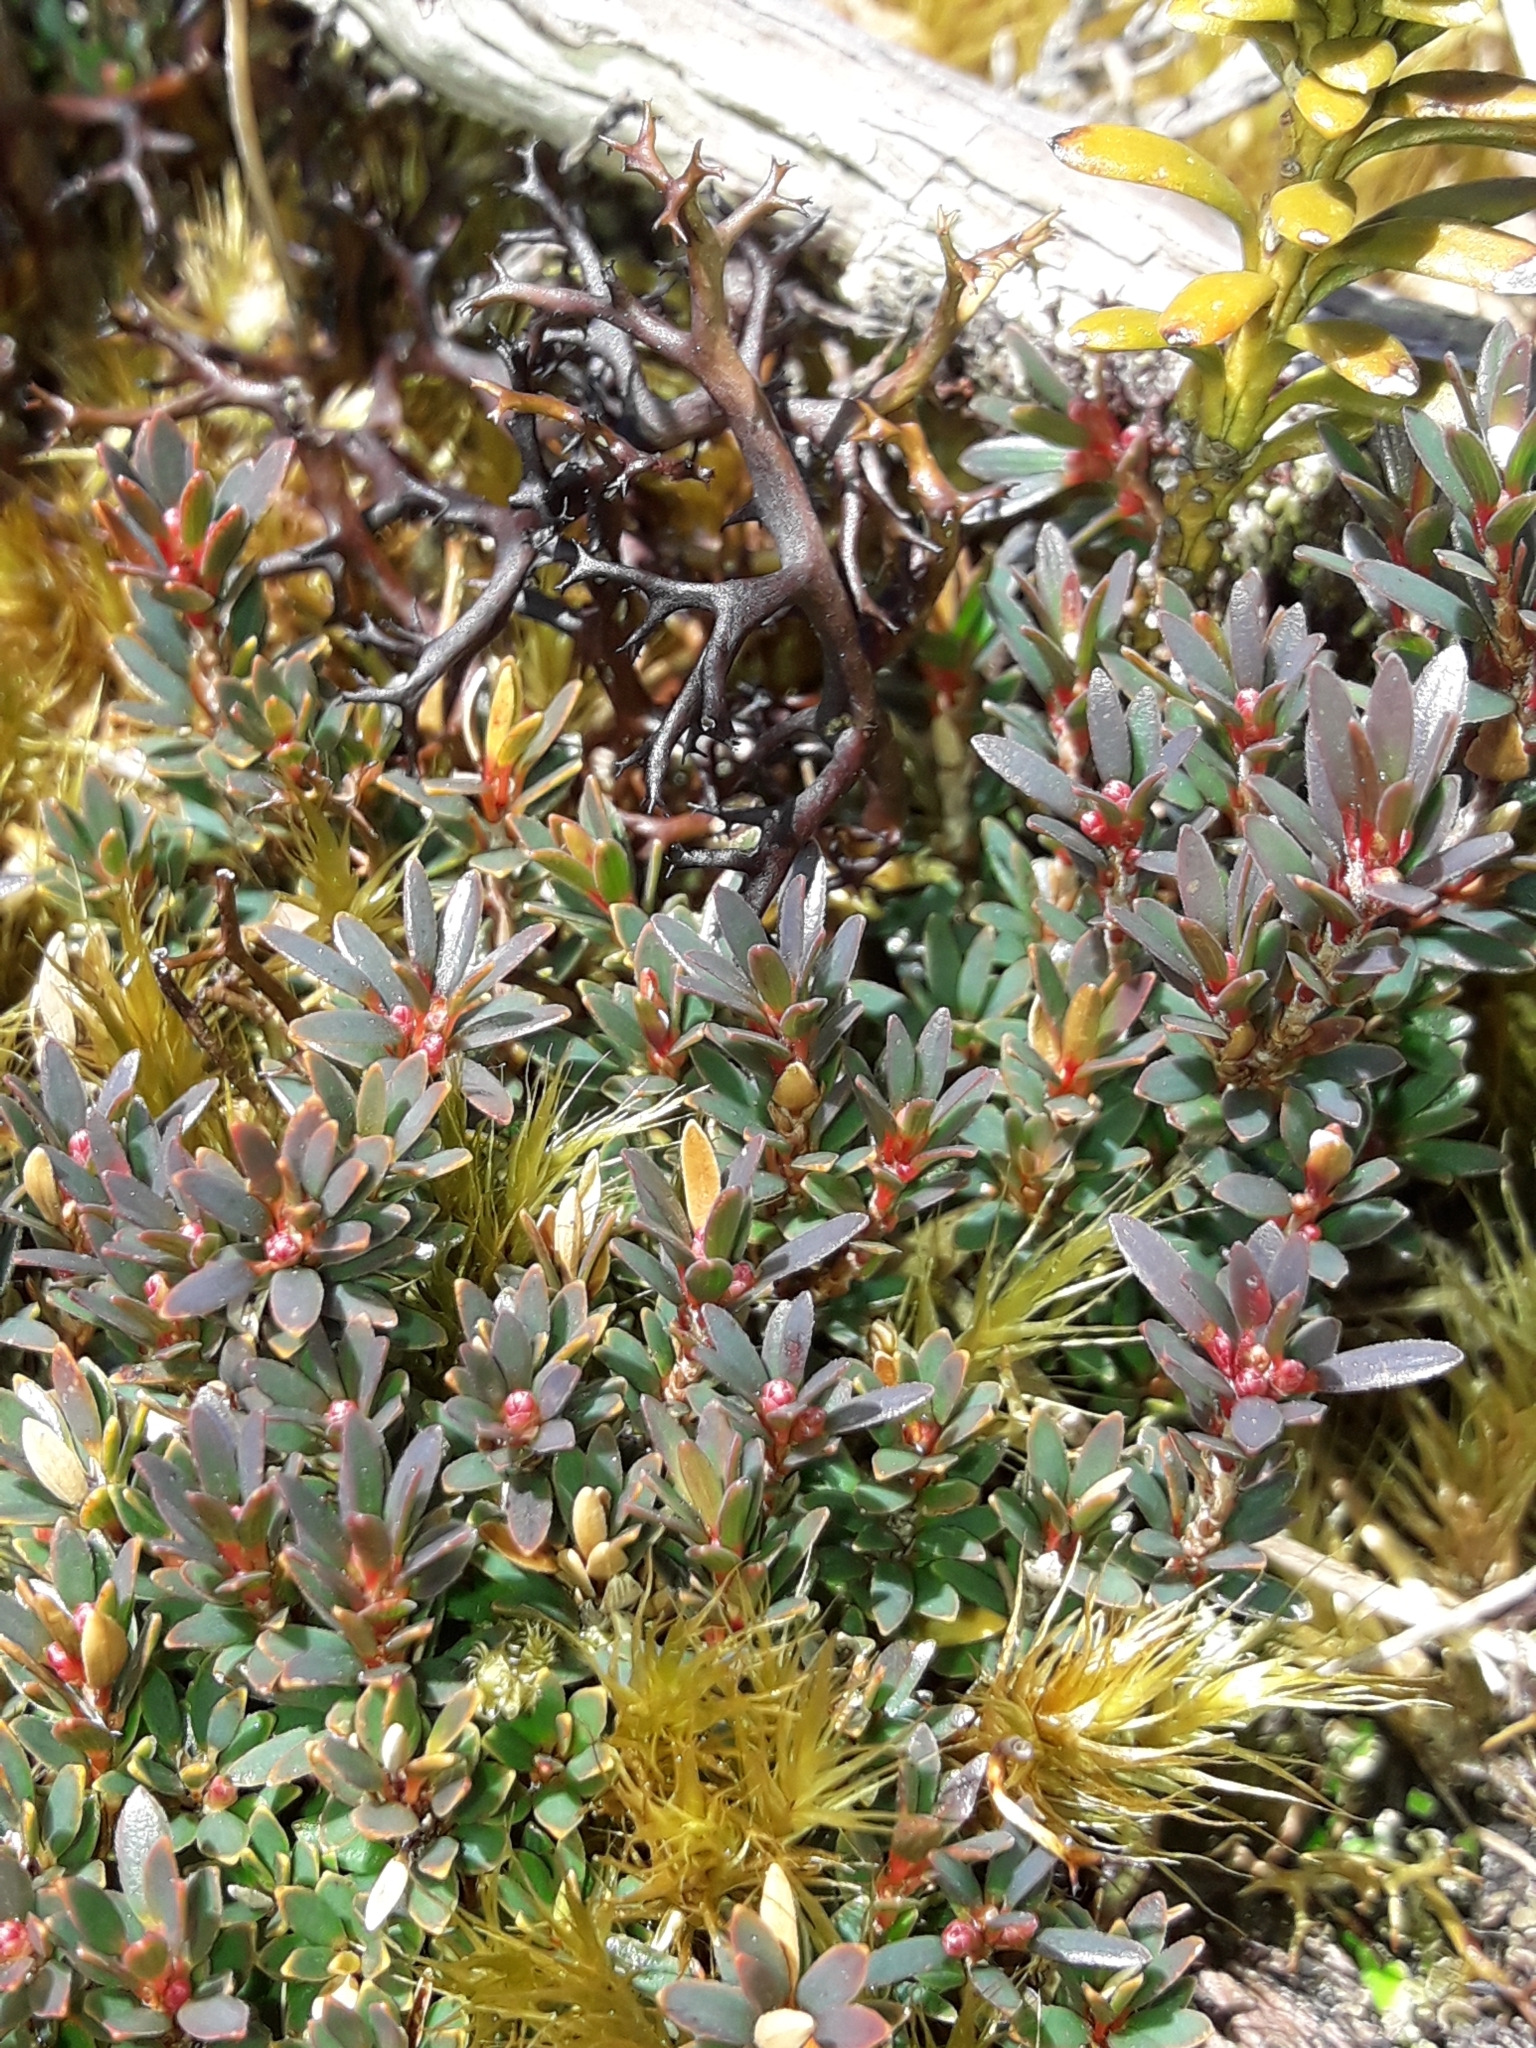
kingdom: Plantae
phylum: Tracheophyta
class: Magnoliopsida
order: Ericales
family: Ericaceae
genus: Pentachondra
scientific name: Pentachondra pumila
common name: Carpet-heath
